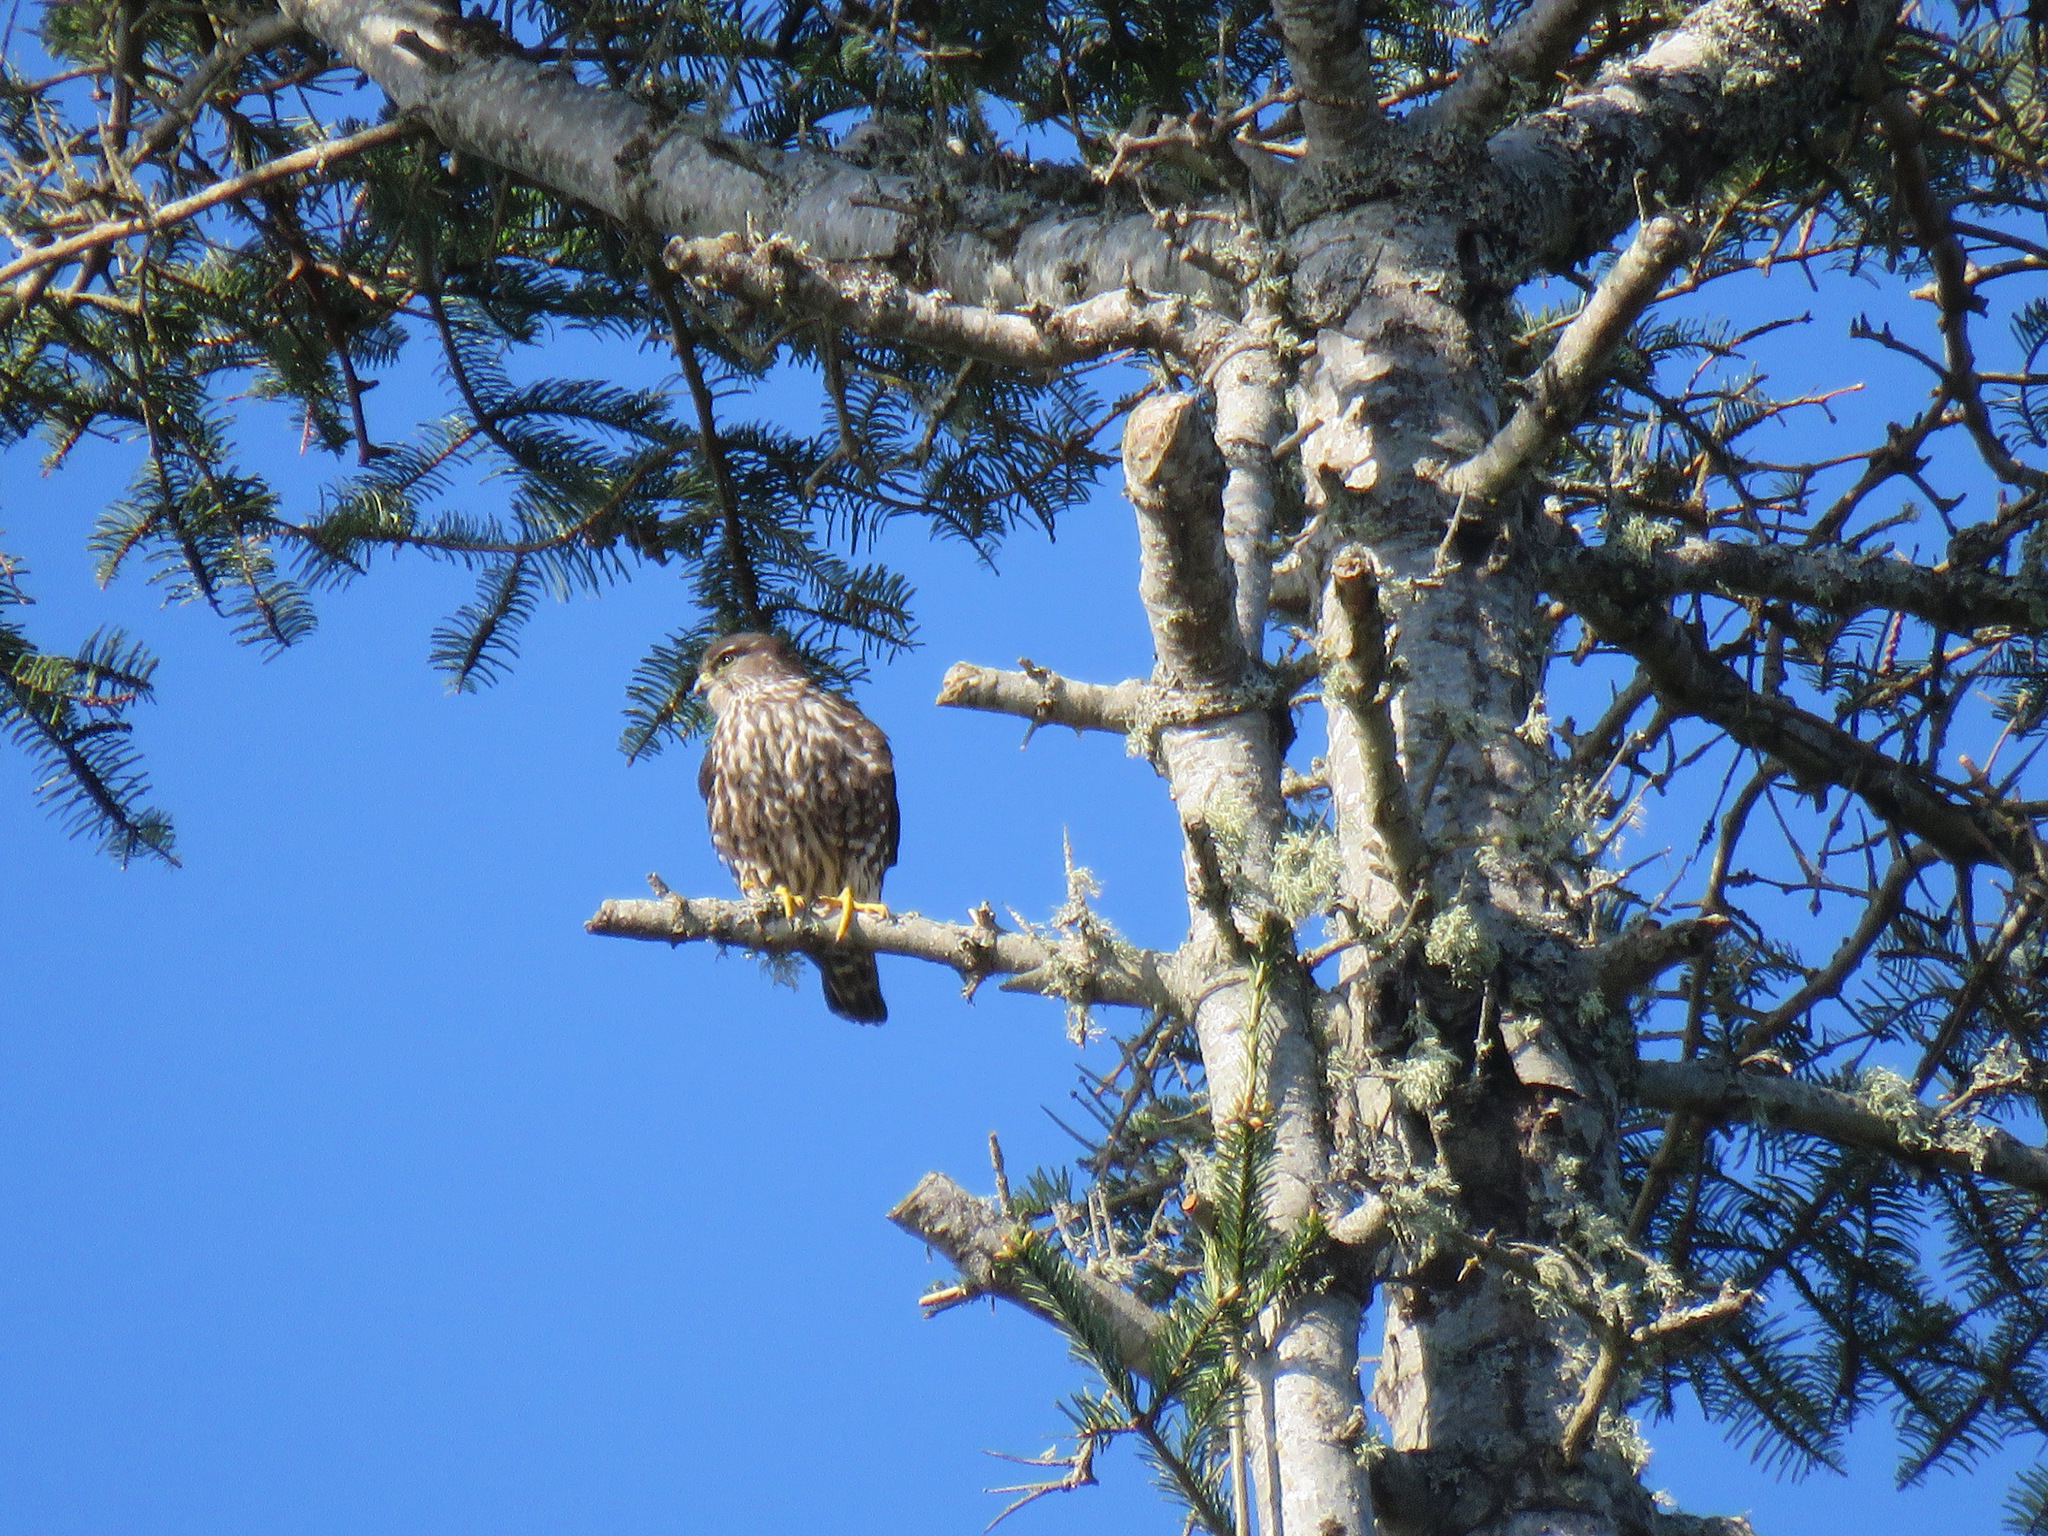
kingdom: Animalia
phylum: Chordata
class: Aves
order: Falconiformes
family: Falconidae
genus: Falco
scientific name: Falco columbarius
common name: Merlin
